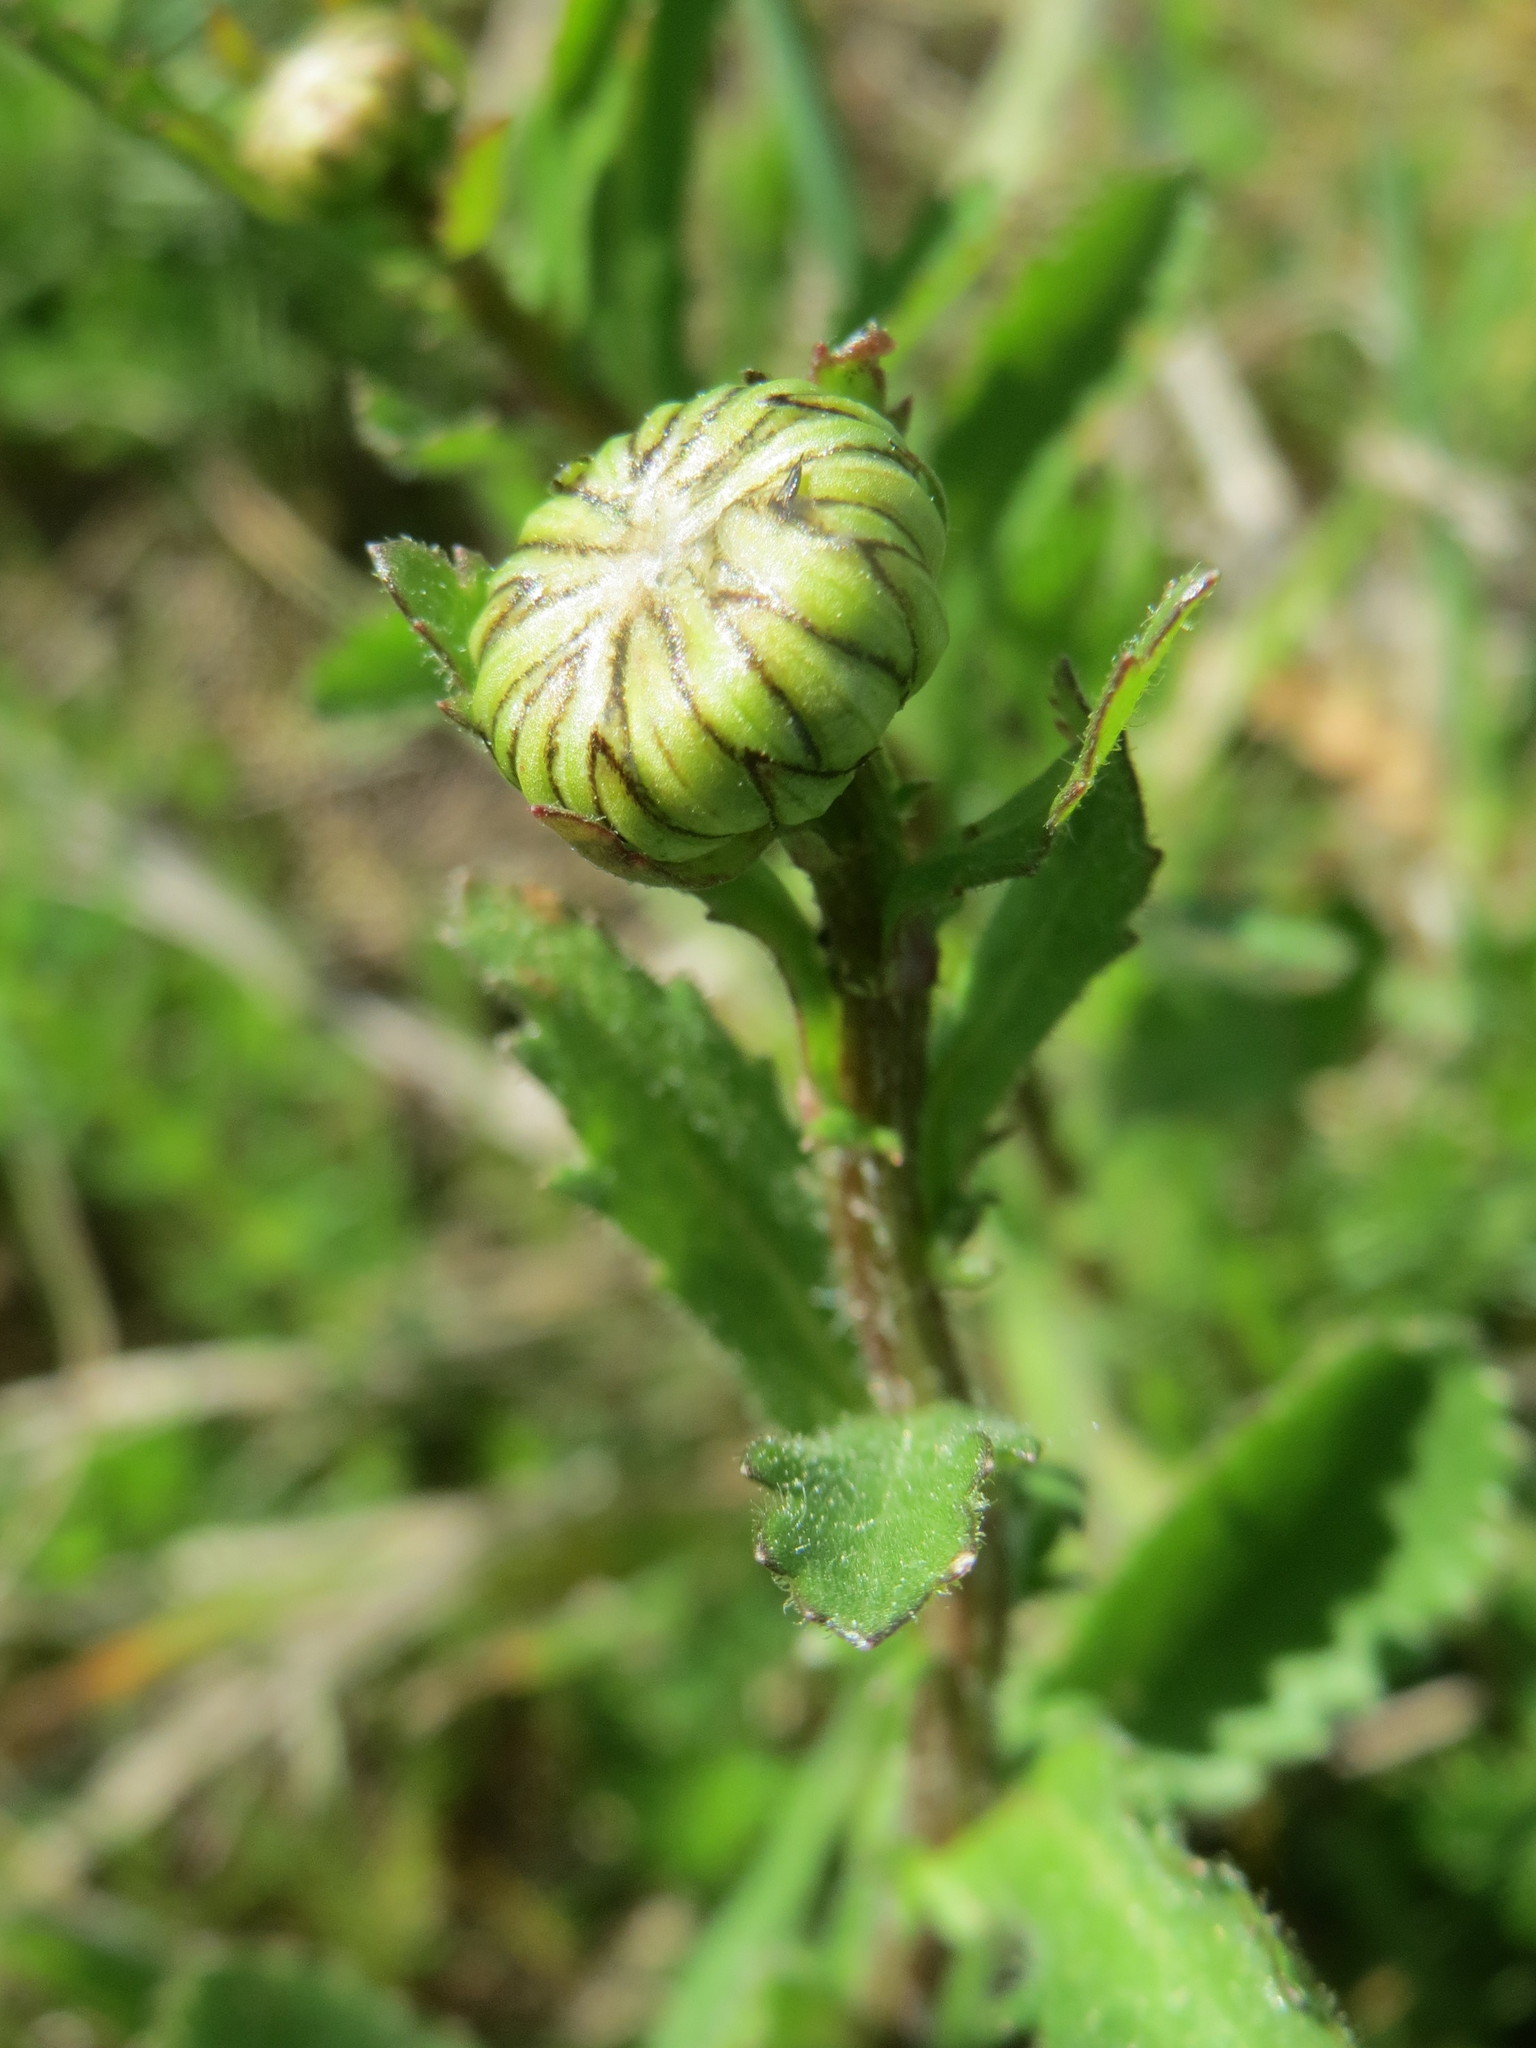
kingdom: Plantae
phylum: Tracheophyta
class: Magnoliopsida
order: Asterales
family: Asteraceae
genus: Leucanthemum
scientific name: Leucanthemum vulgare
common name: Oxeye daisy
